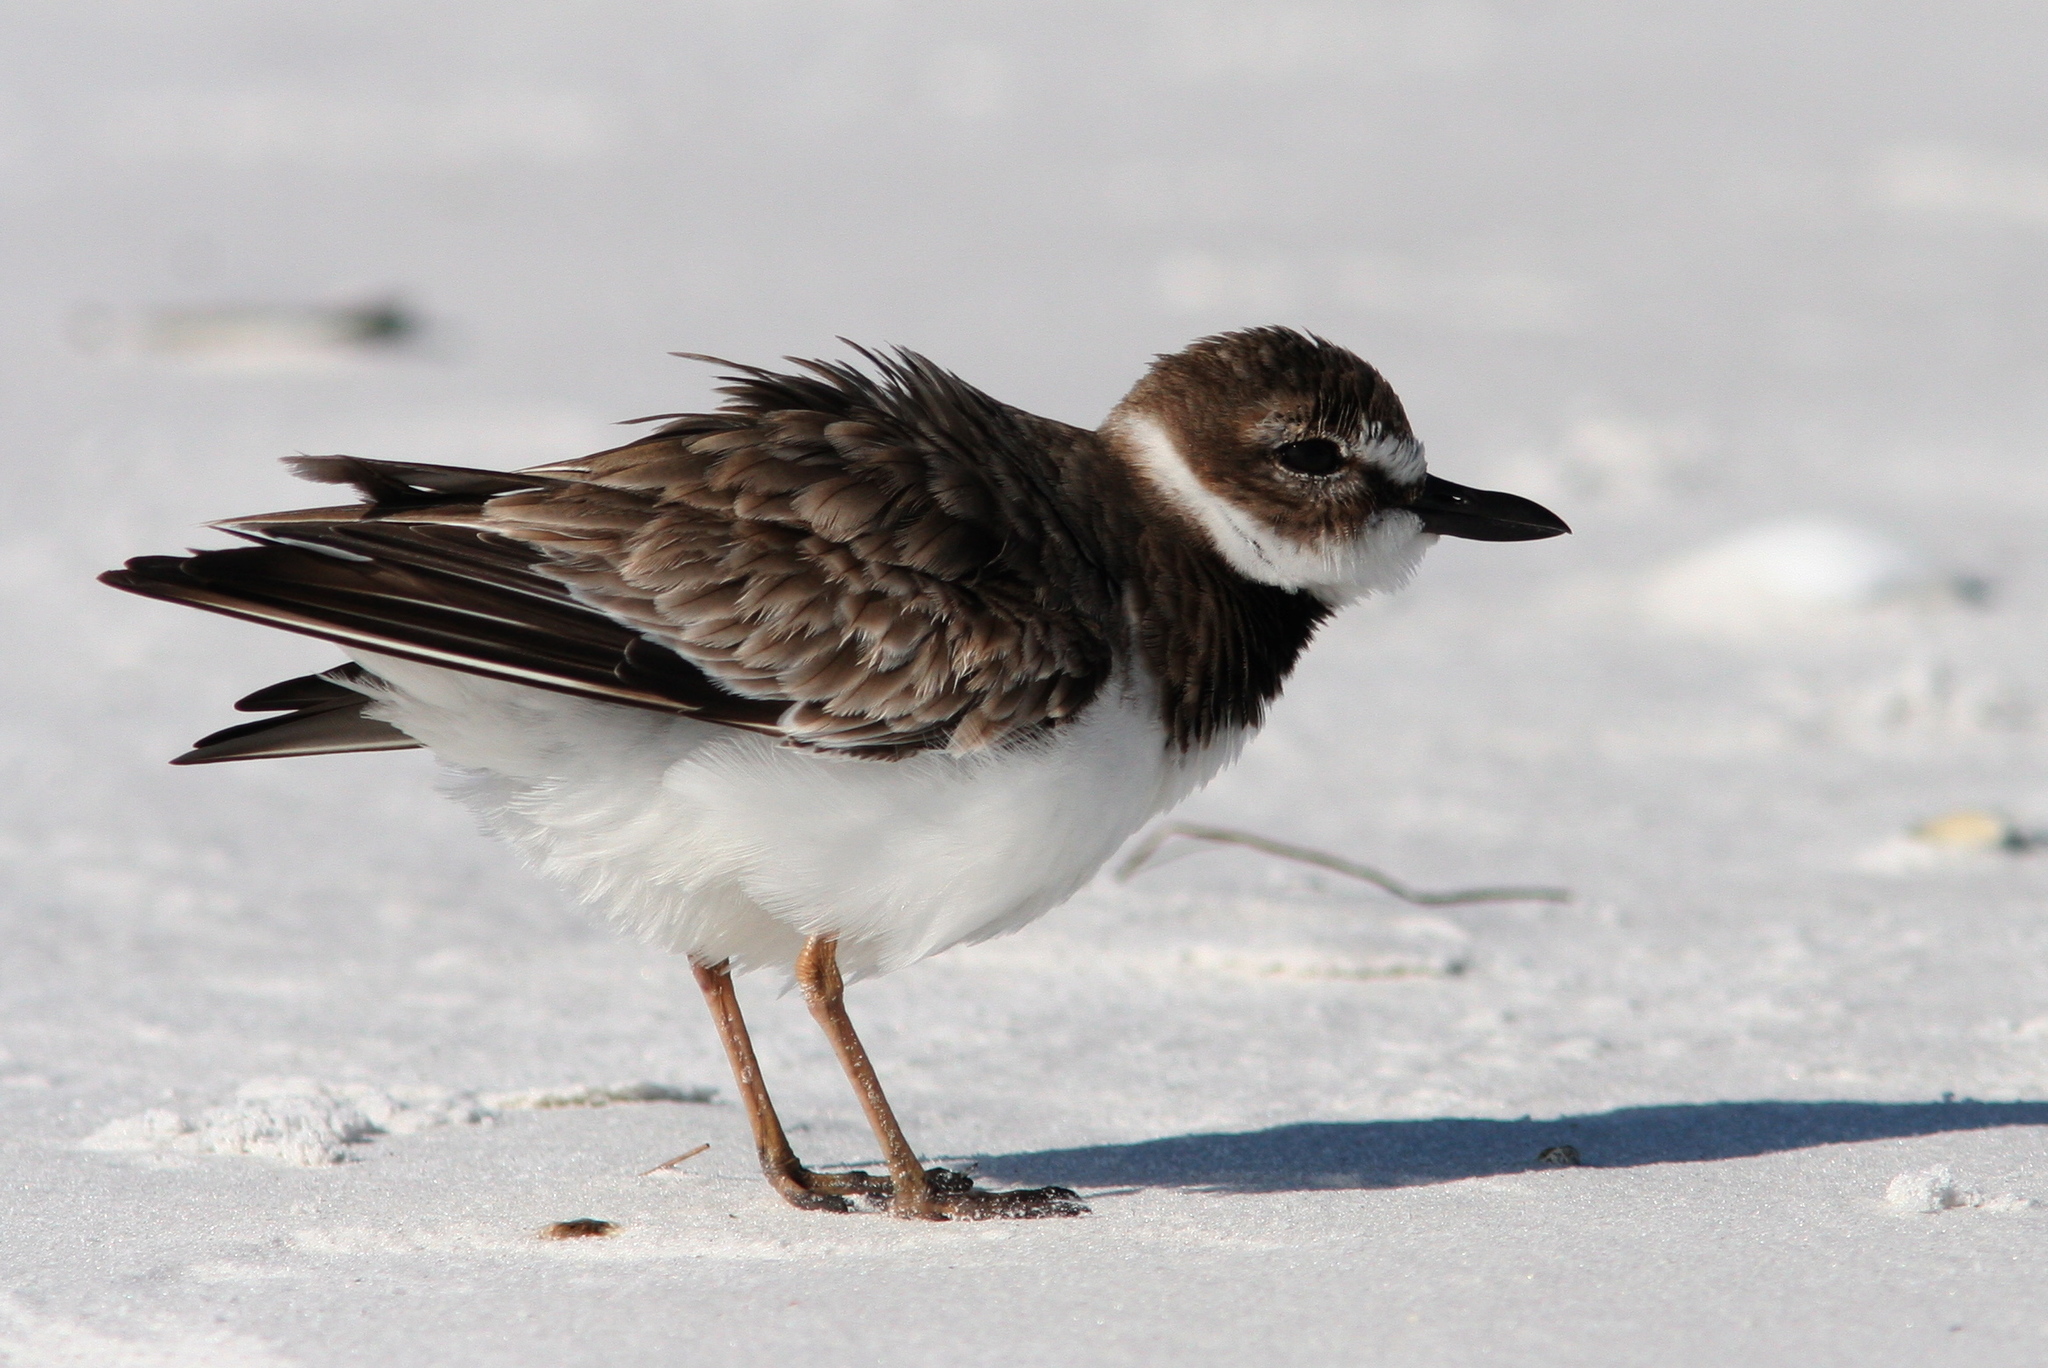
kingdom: Animalia
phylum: Chordata
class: Aves
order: Charadriiformes
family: Charadriidae
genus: Anarhynchus
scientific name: Anarhynchus
